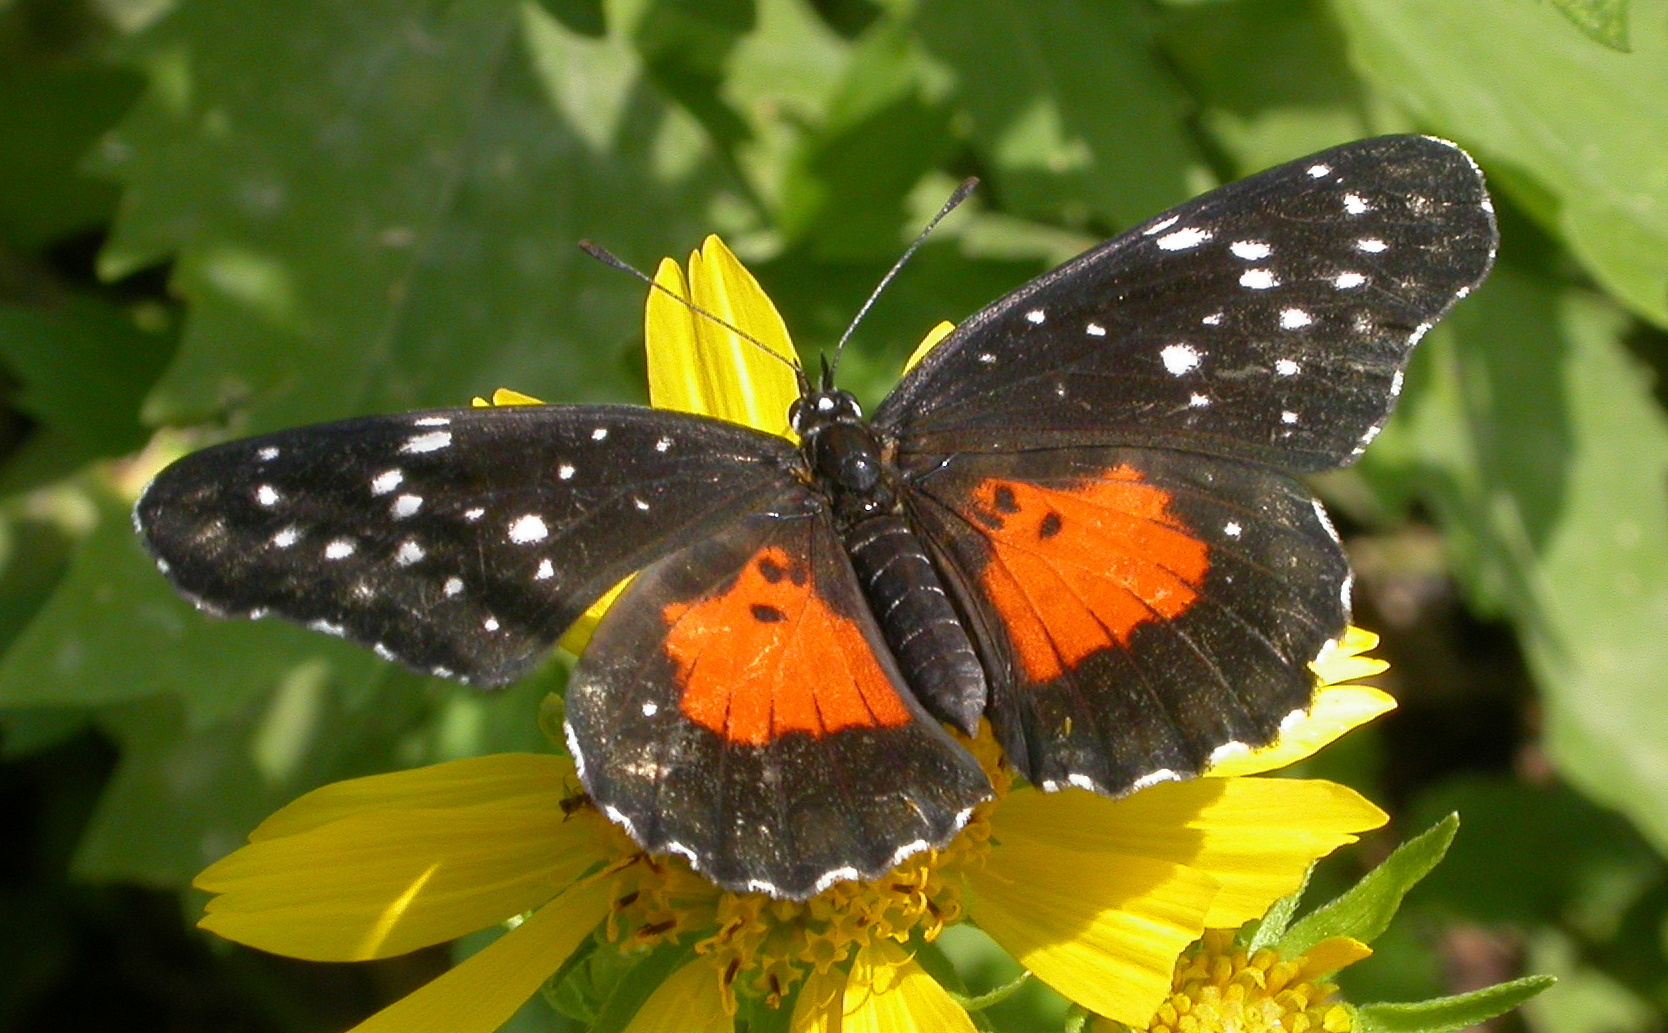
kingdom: Animalia
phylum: Arthropoda
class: Insecta
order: Lepidoptera
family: Nymphalidae
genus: Chlosyne
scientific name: Chlosyne janais
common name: Crimson patch
